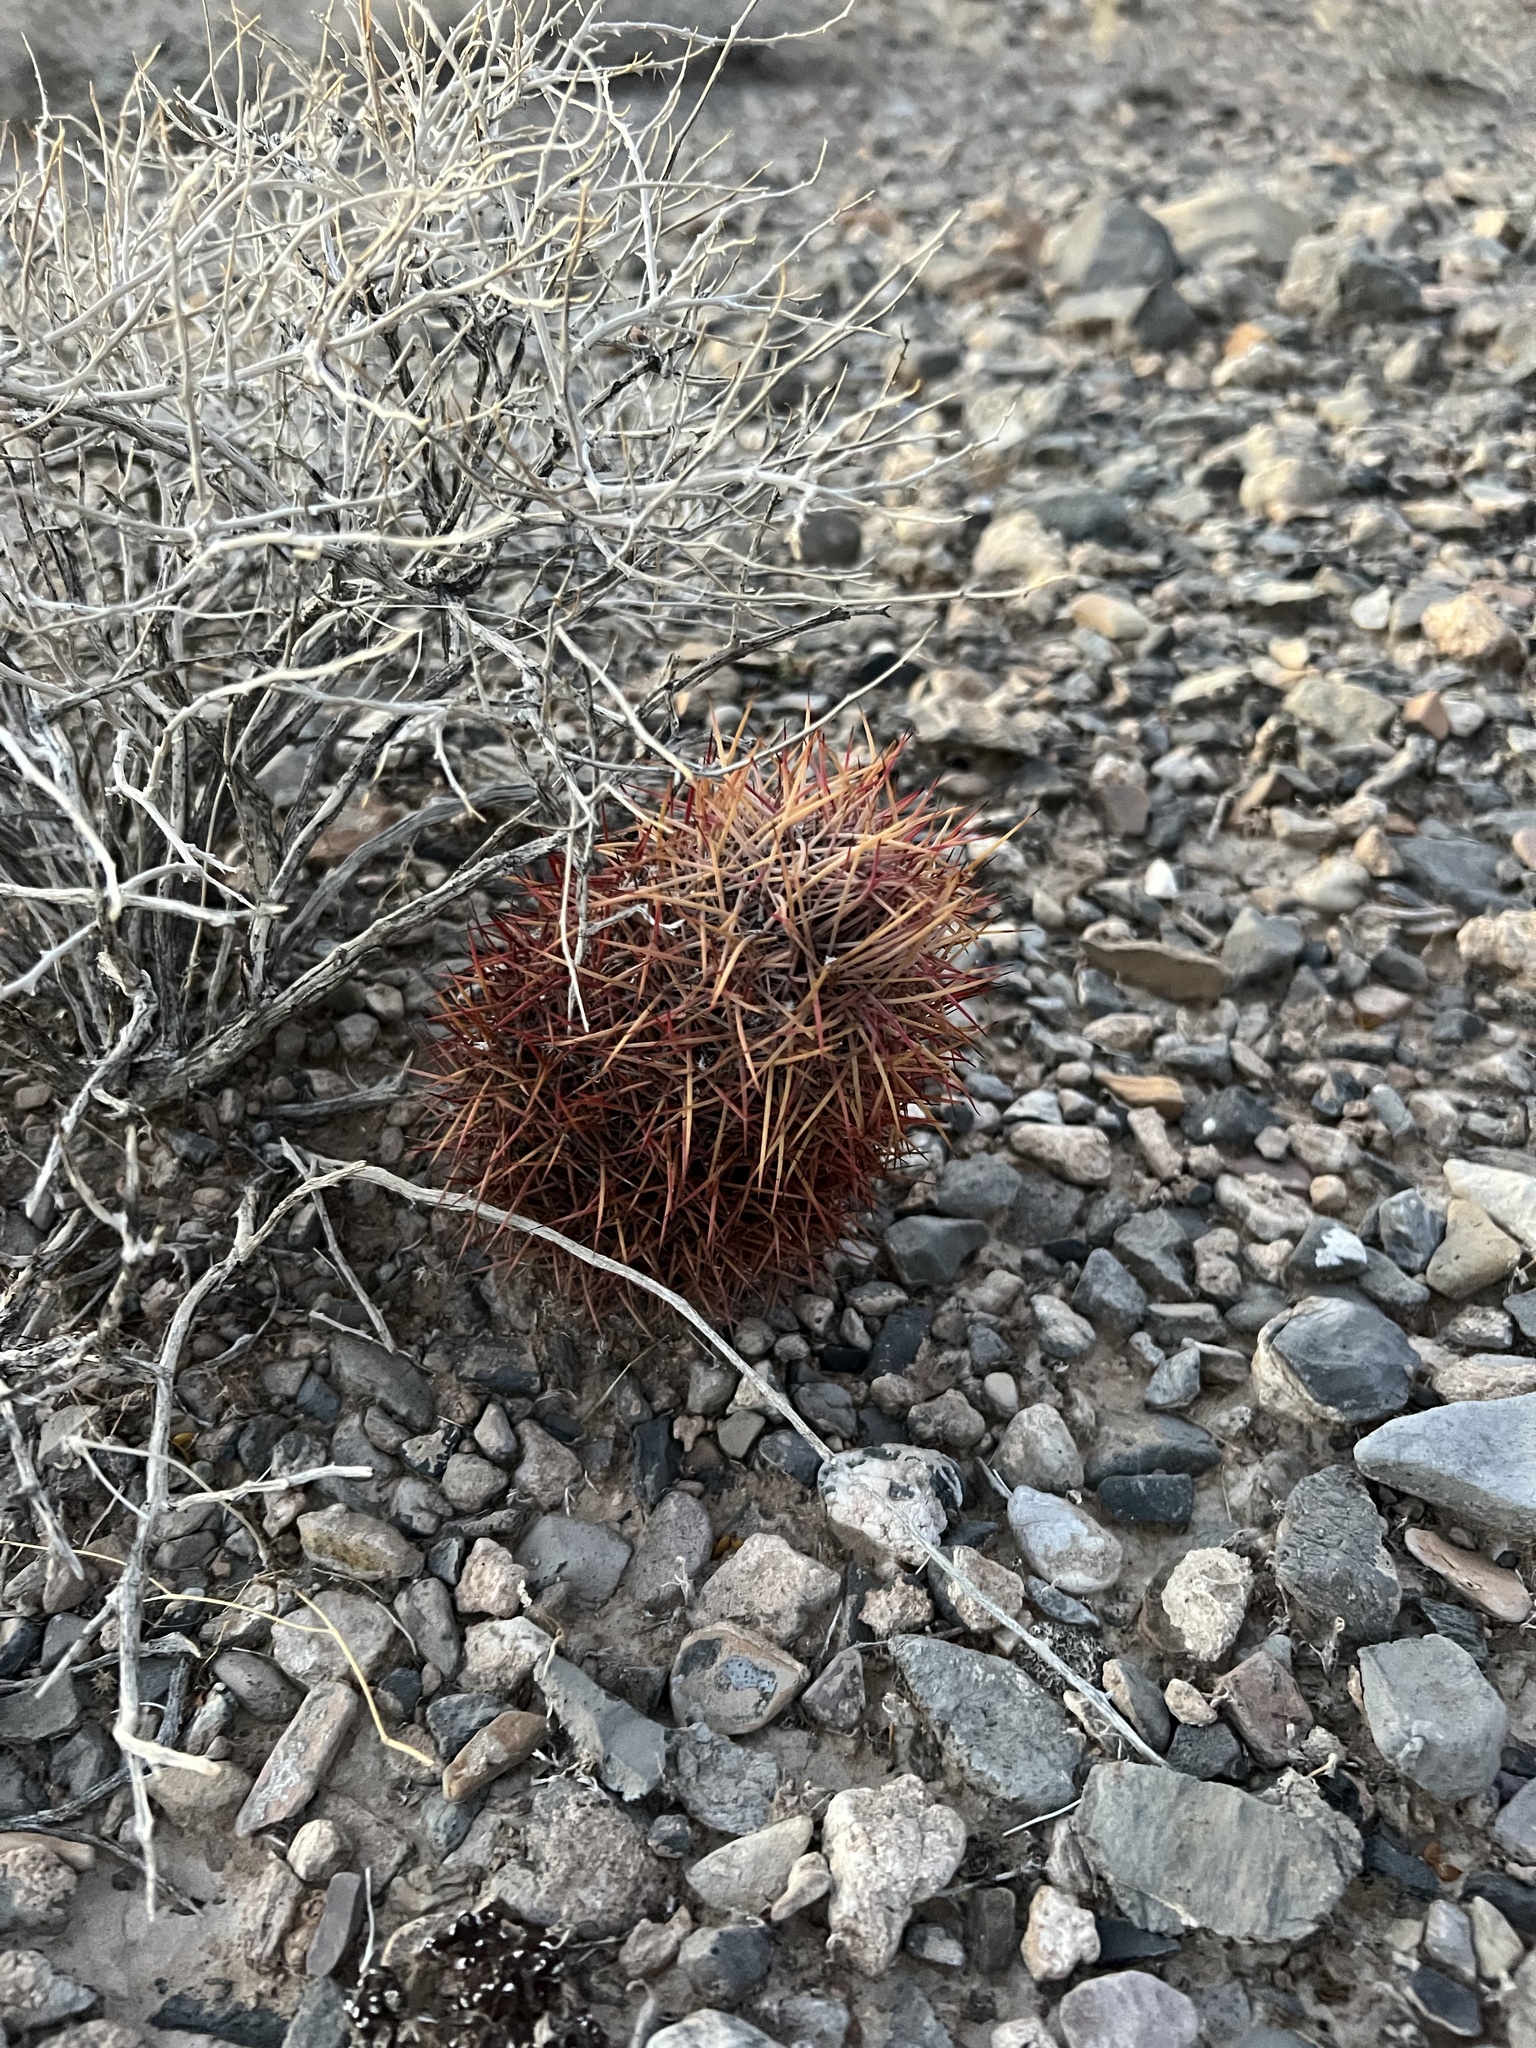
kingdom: Plantae
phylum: Tracheophyta
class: Magnoliopsida
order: Caryophyllales
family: Cactaceae
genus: Sclerocactus
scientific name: Sclerocactus johnsonii
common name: Eight-spine fishhook cactus
